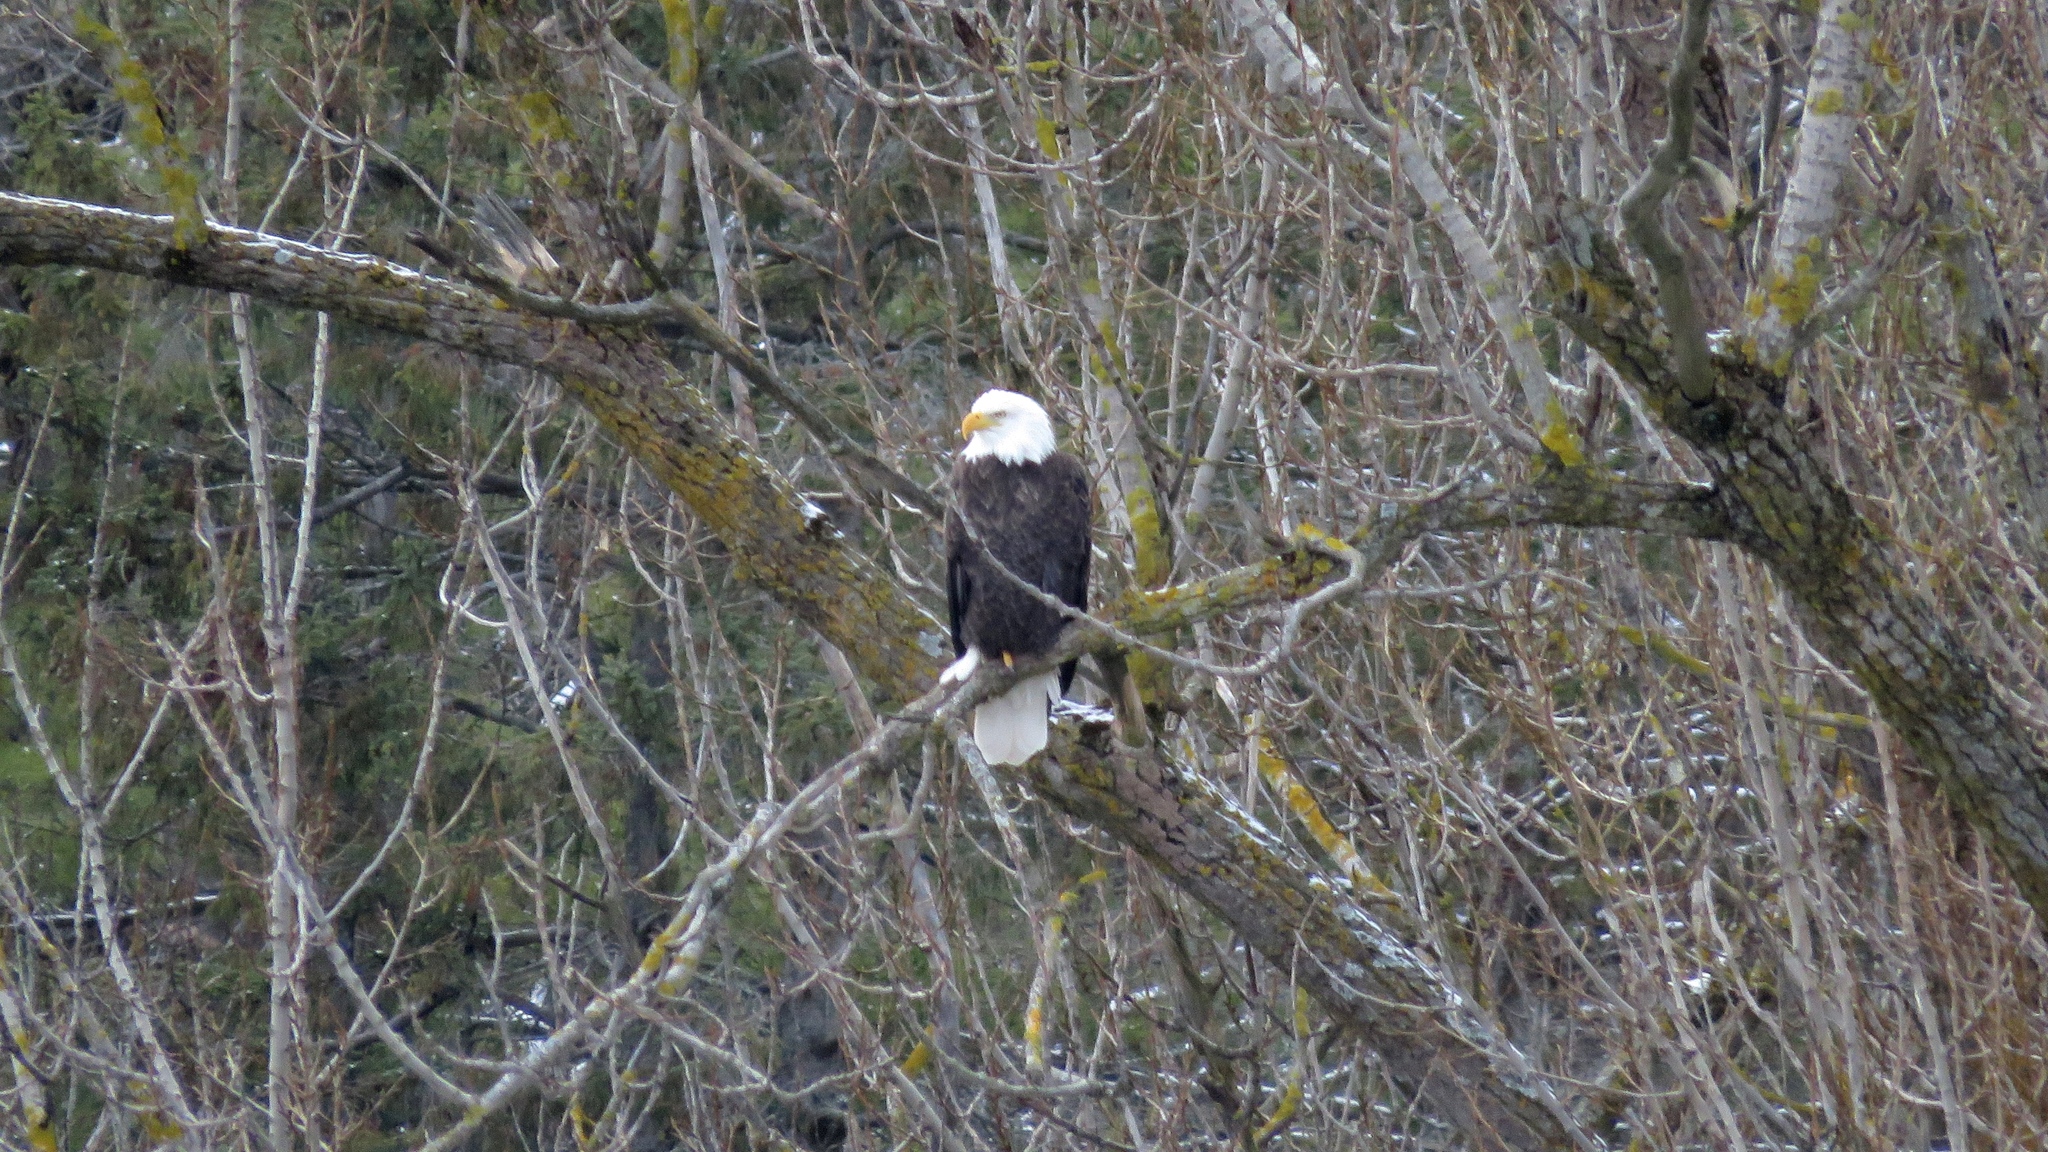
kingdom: Animalia
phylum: Chordata
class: Aves
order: Accipitriformes
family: Accipitridae
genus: Haliaeetus
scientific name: Haliaeetus leucocephalus
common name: Bald eagle
